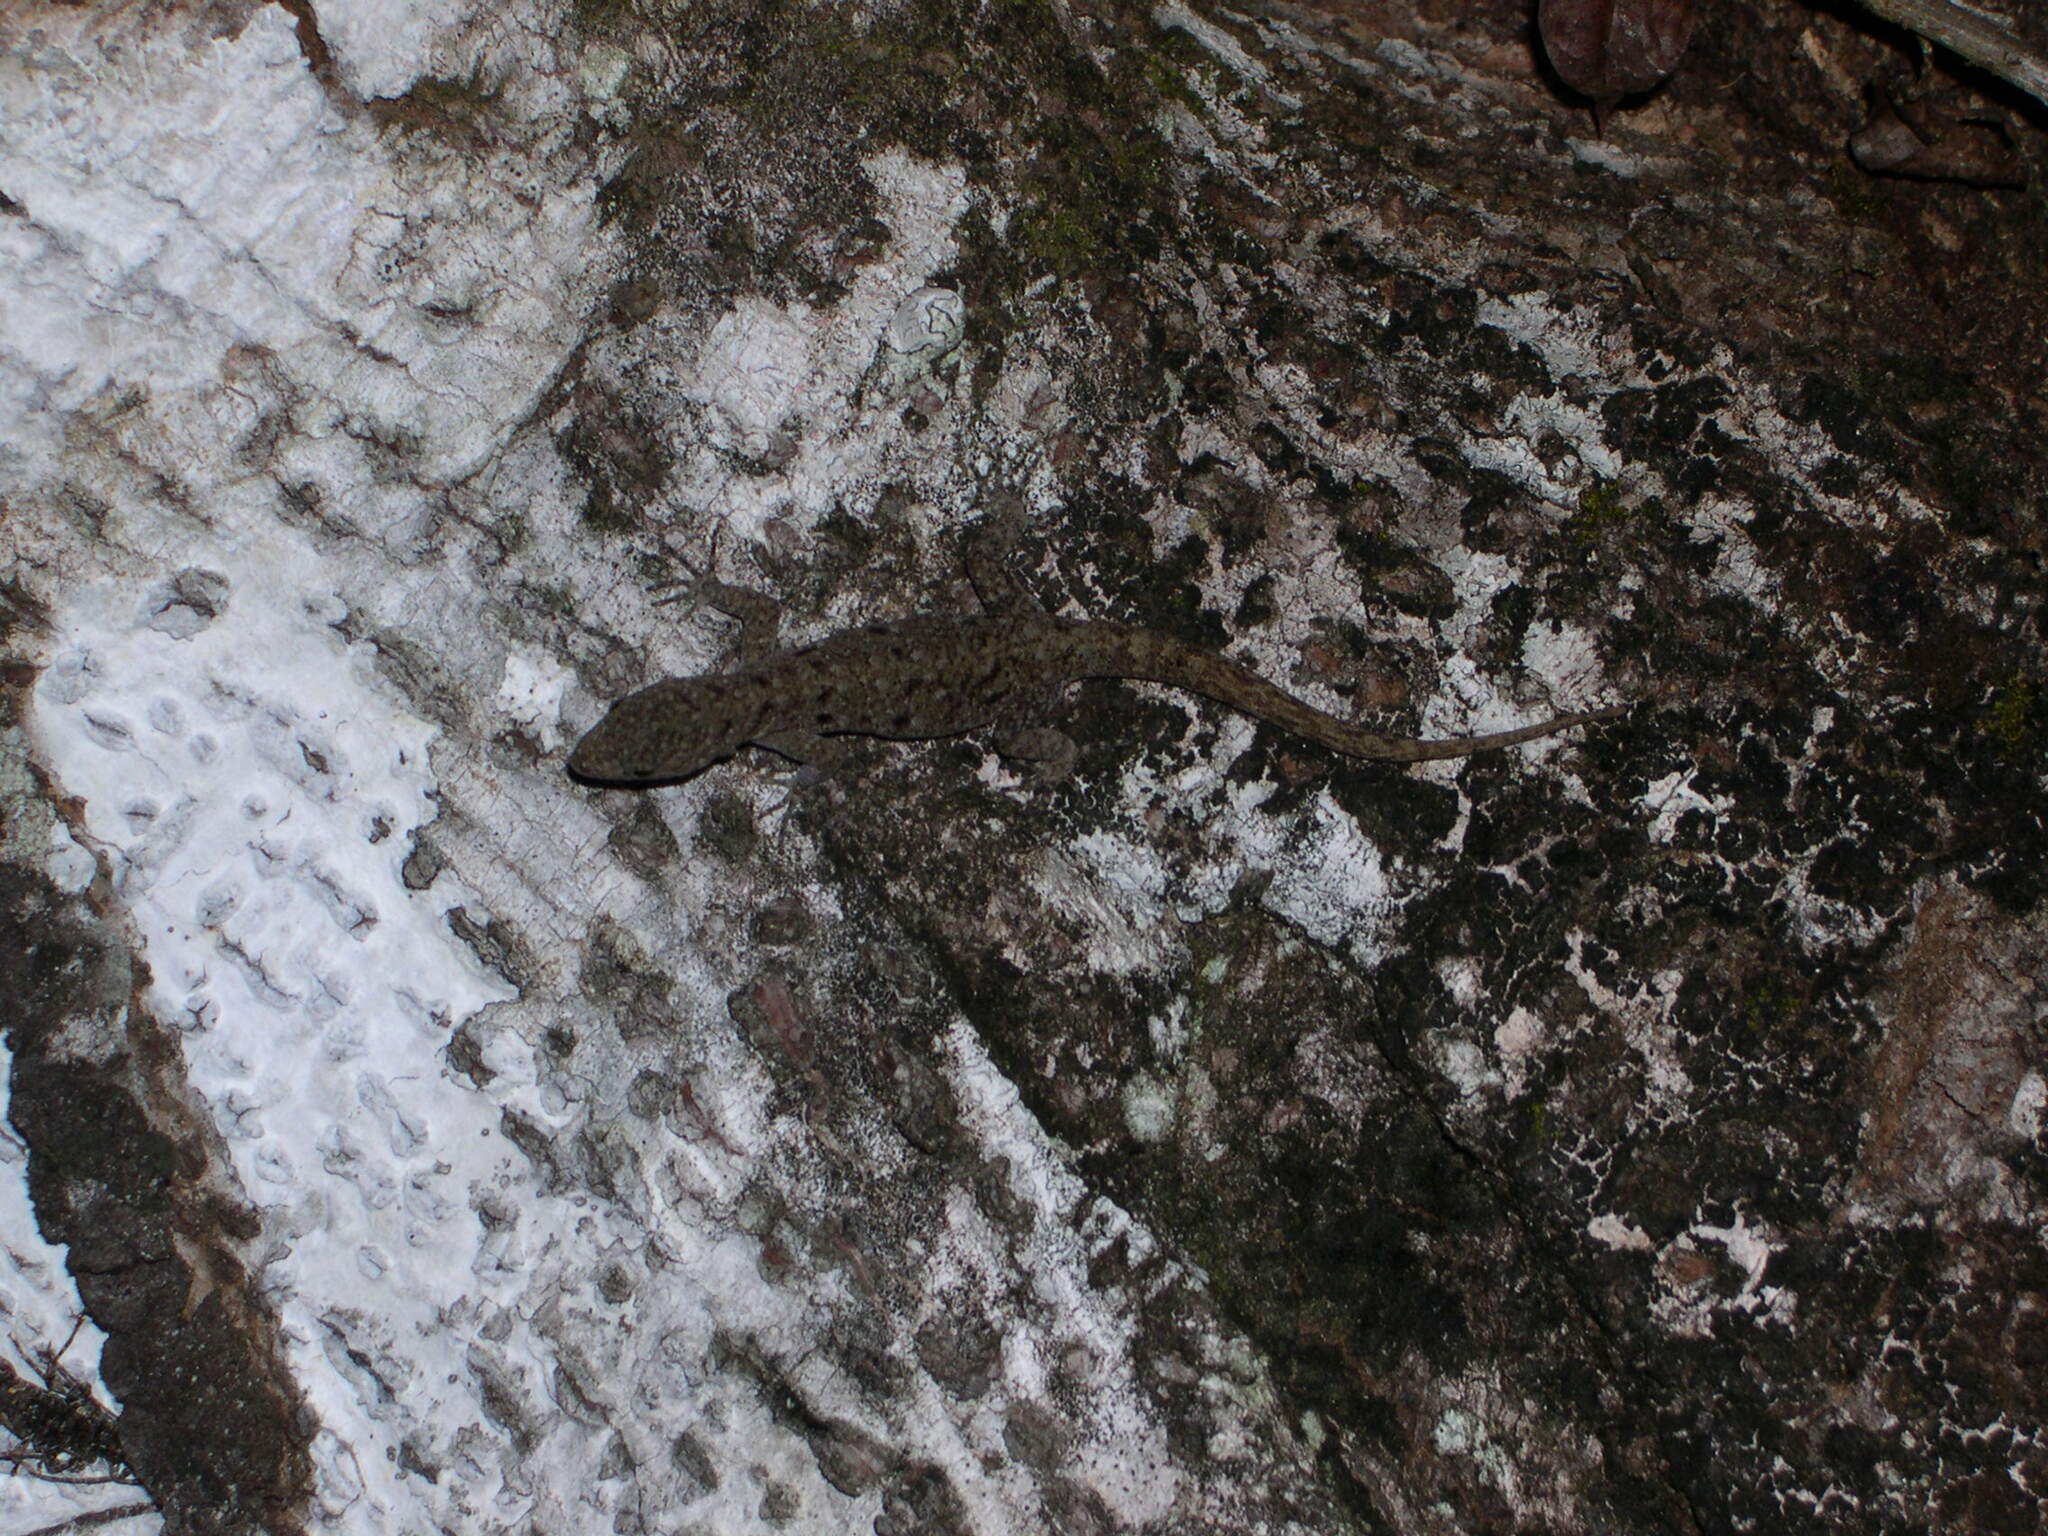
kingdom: Animalia
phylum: Chordata
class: Squamata
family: Sphaerodactylidae
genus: Gonatodes
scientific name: Gonatodes albogularis
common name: Yellow-headed gecko
